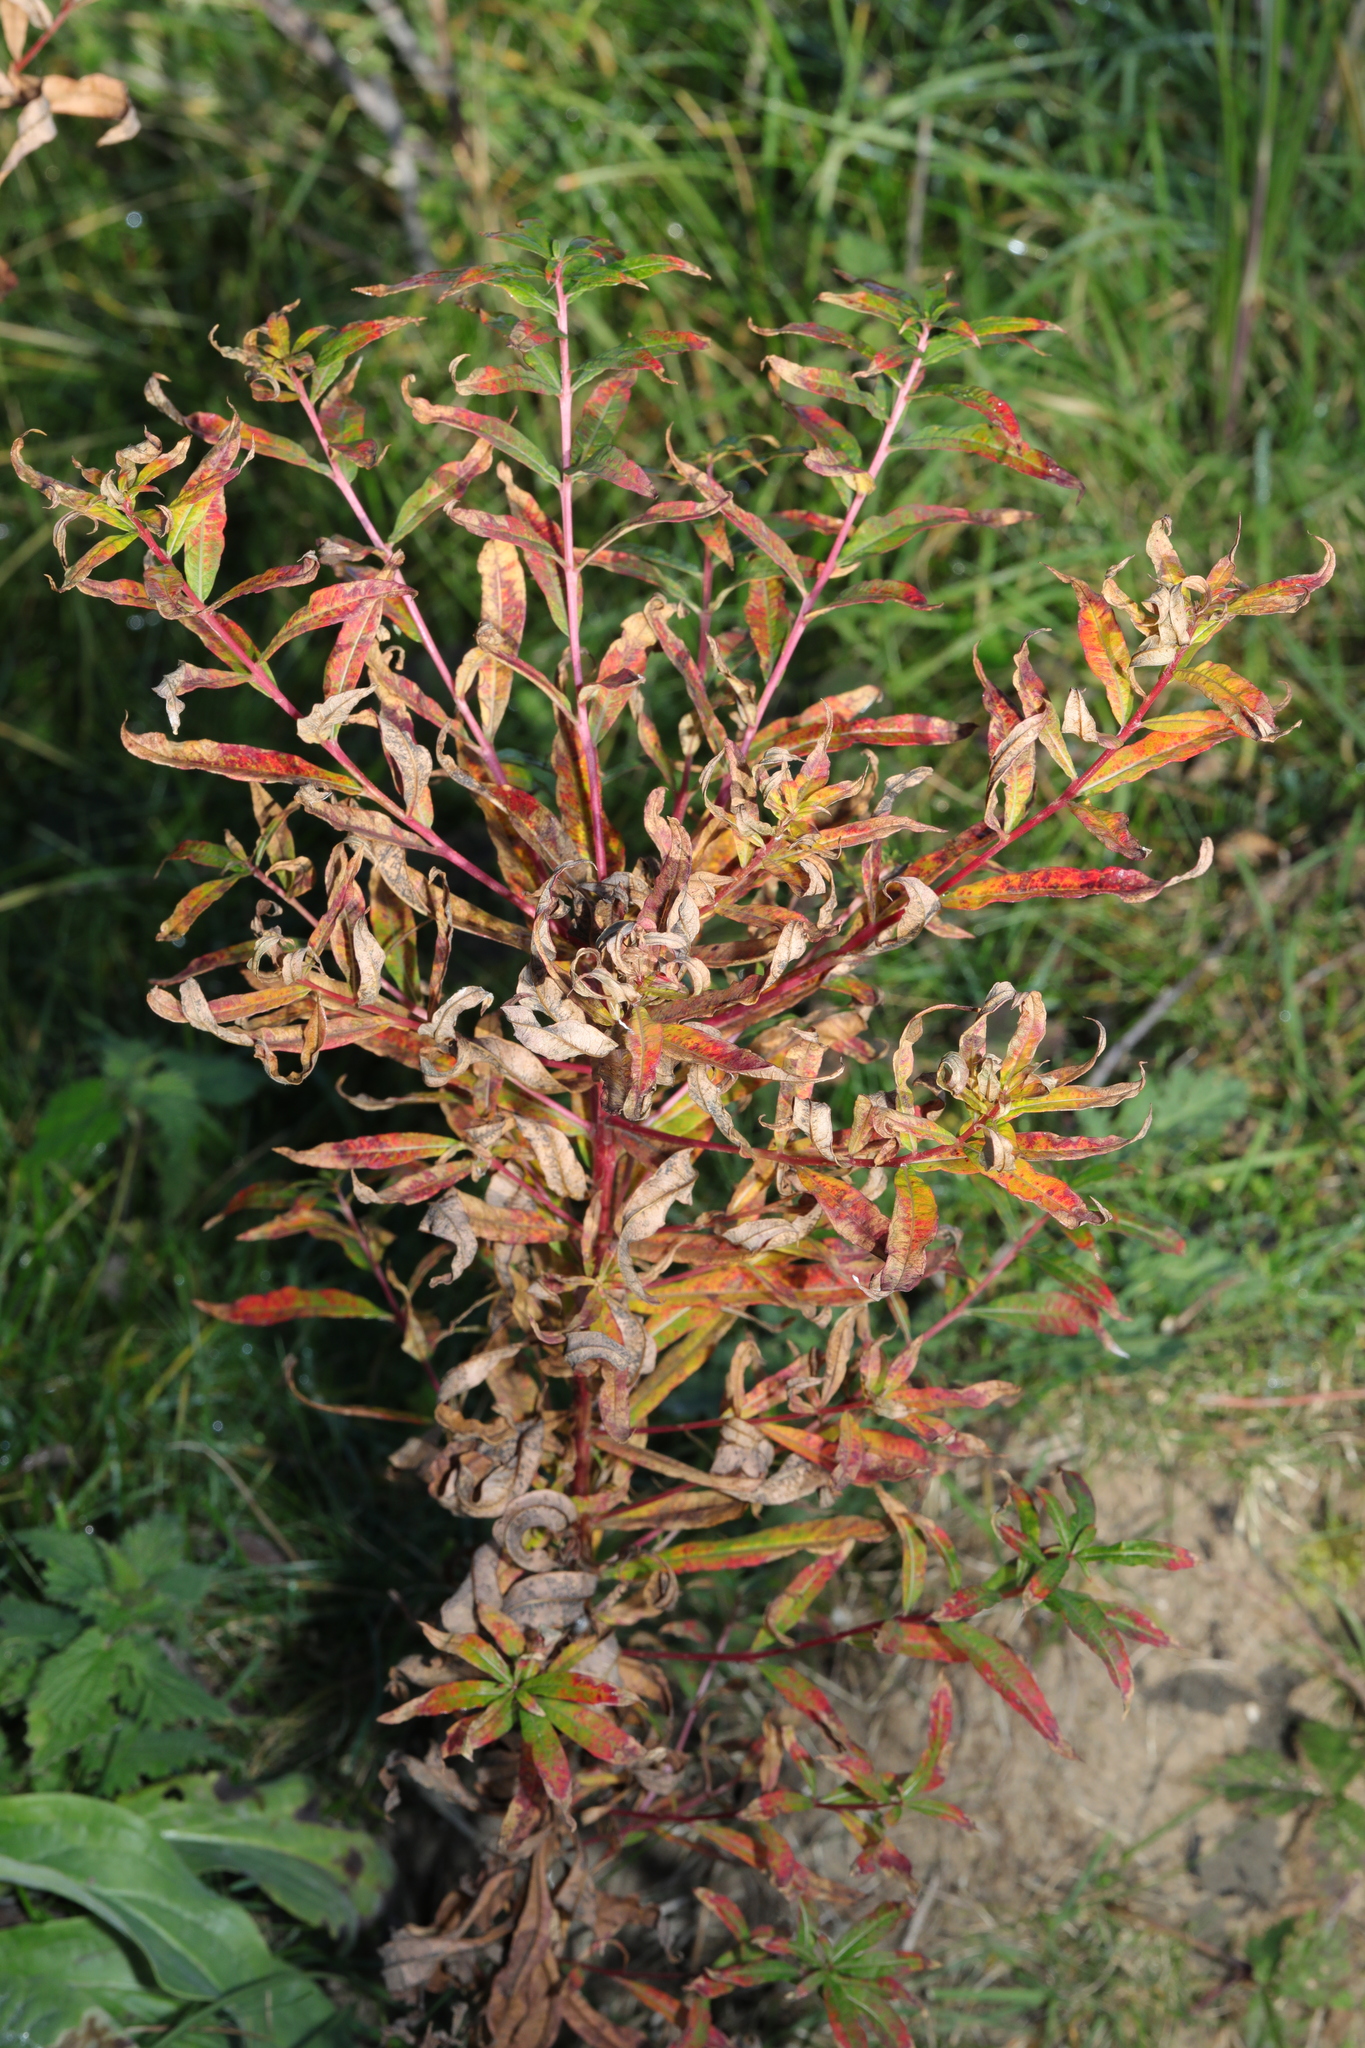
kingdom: Plantae
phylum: Tracheophyta
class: Magnoliopsida
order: Myrtales
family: Onagraceae
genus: Chamaenerion
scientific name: Chamaenerion angustifolium
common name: Fireweed
